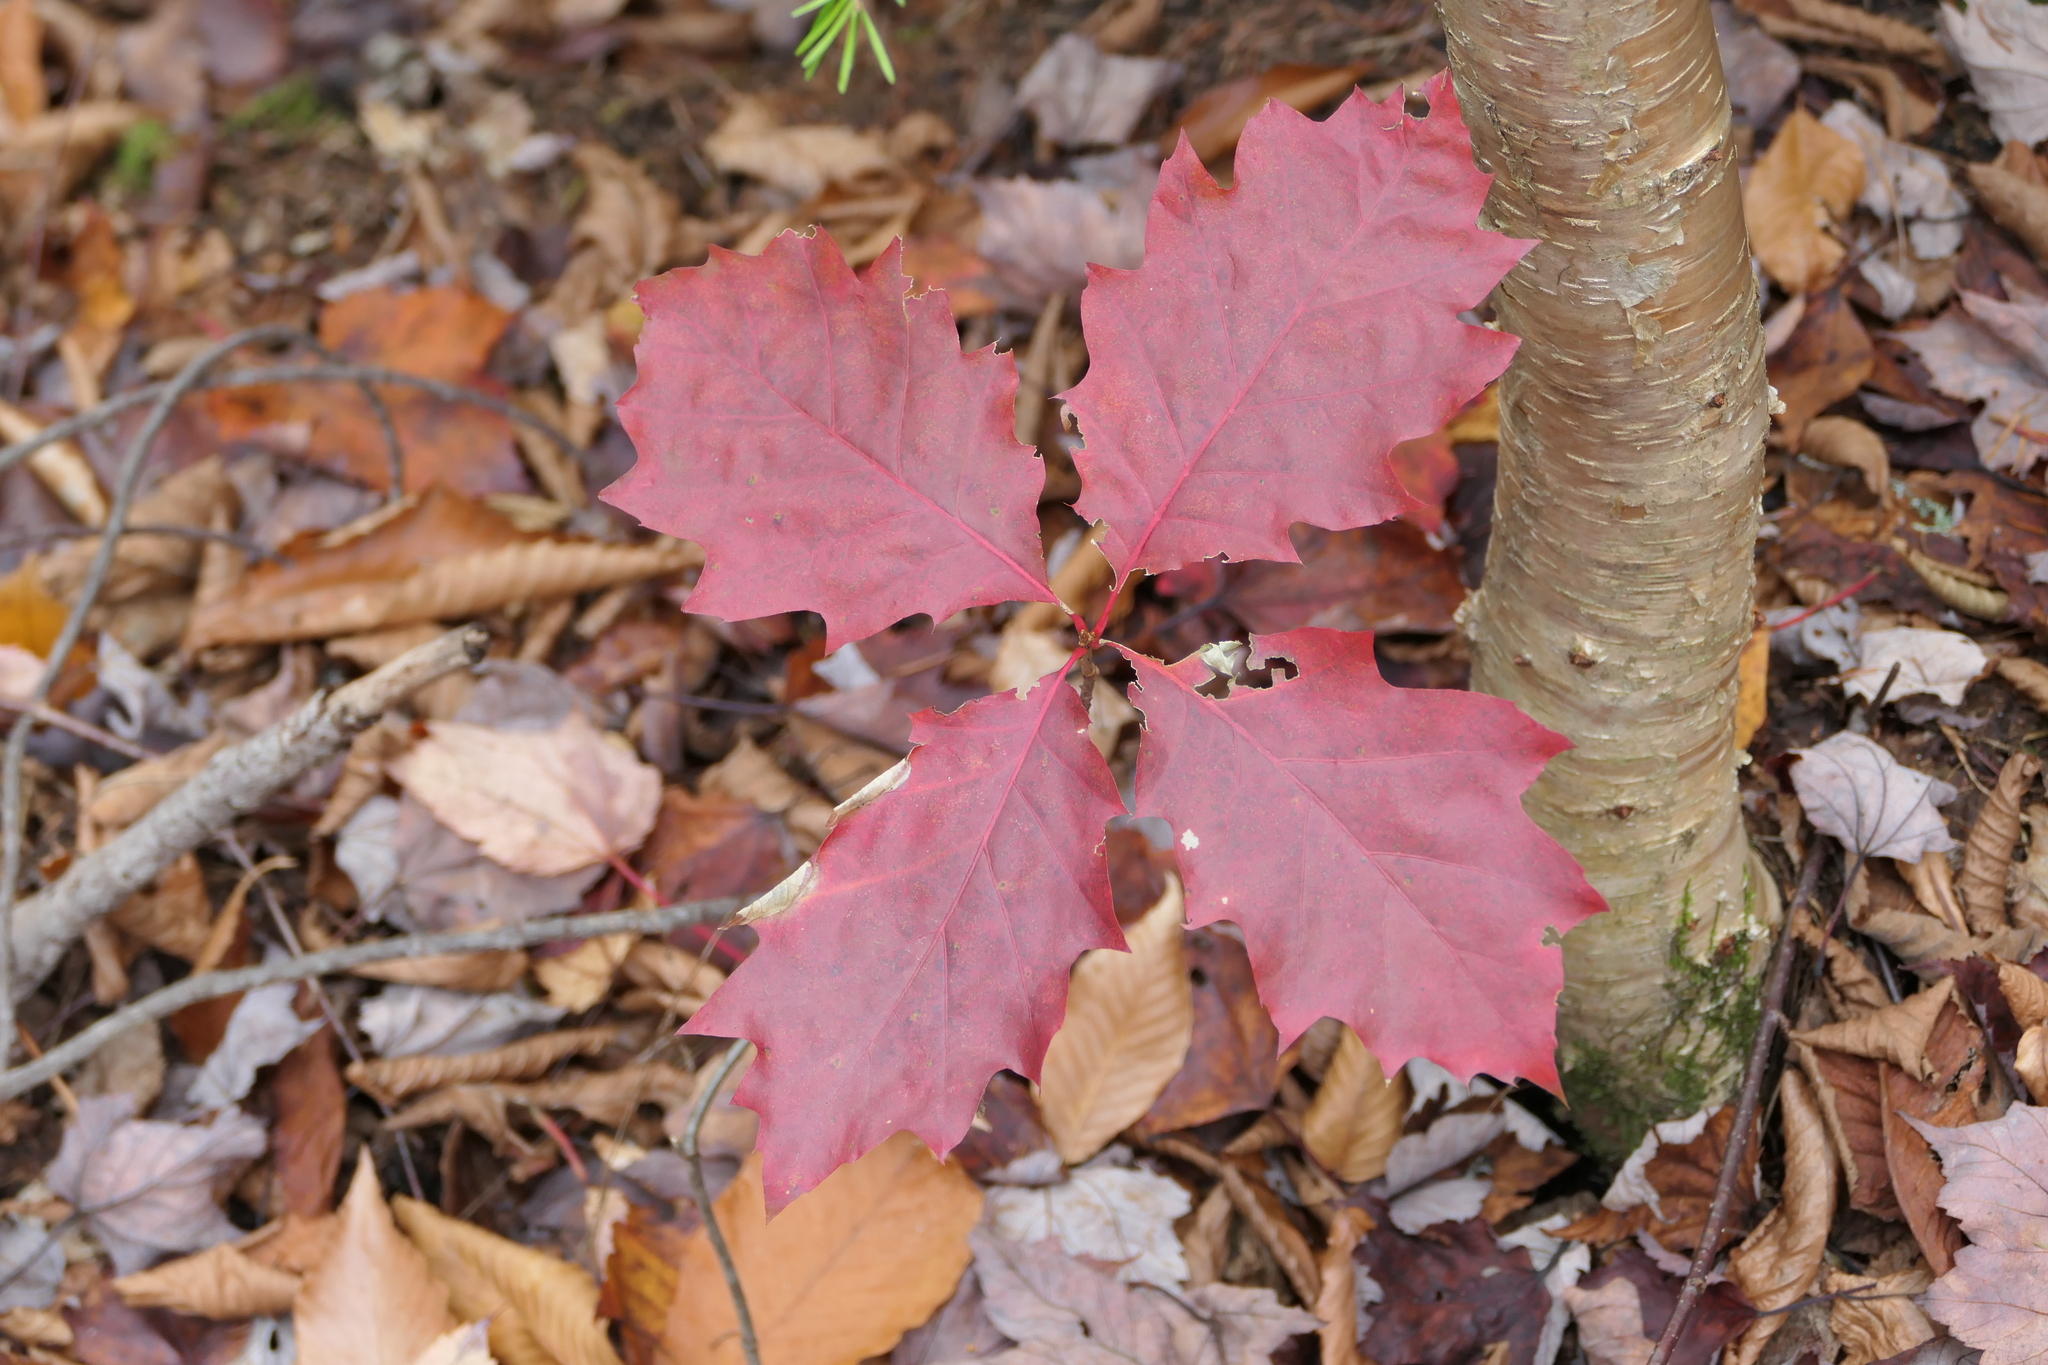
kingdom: Plantae
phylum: Tracheophyta
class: Magnoliopsida
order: Fagales
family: Fagaceae
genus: Quercus
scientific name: Quercus rubra
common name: Red oak
